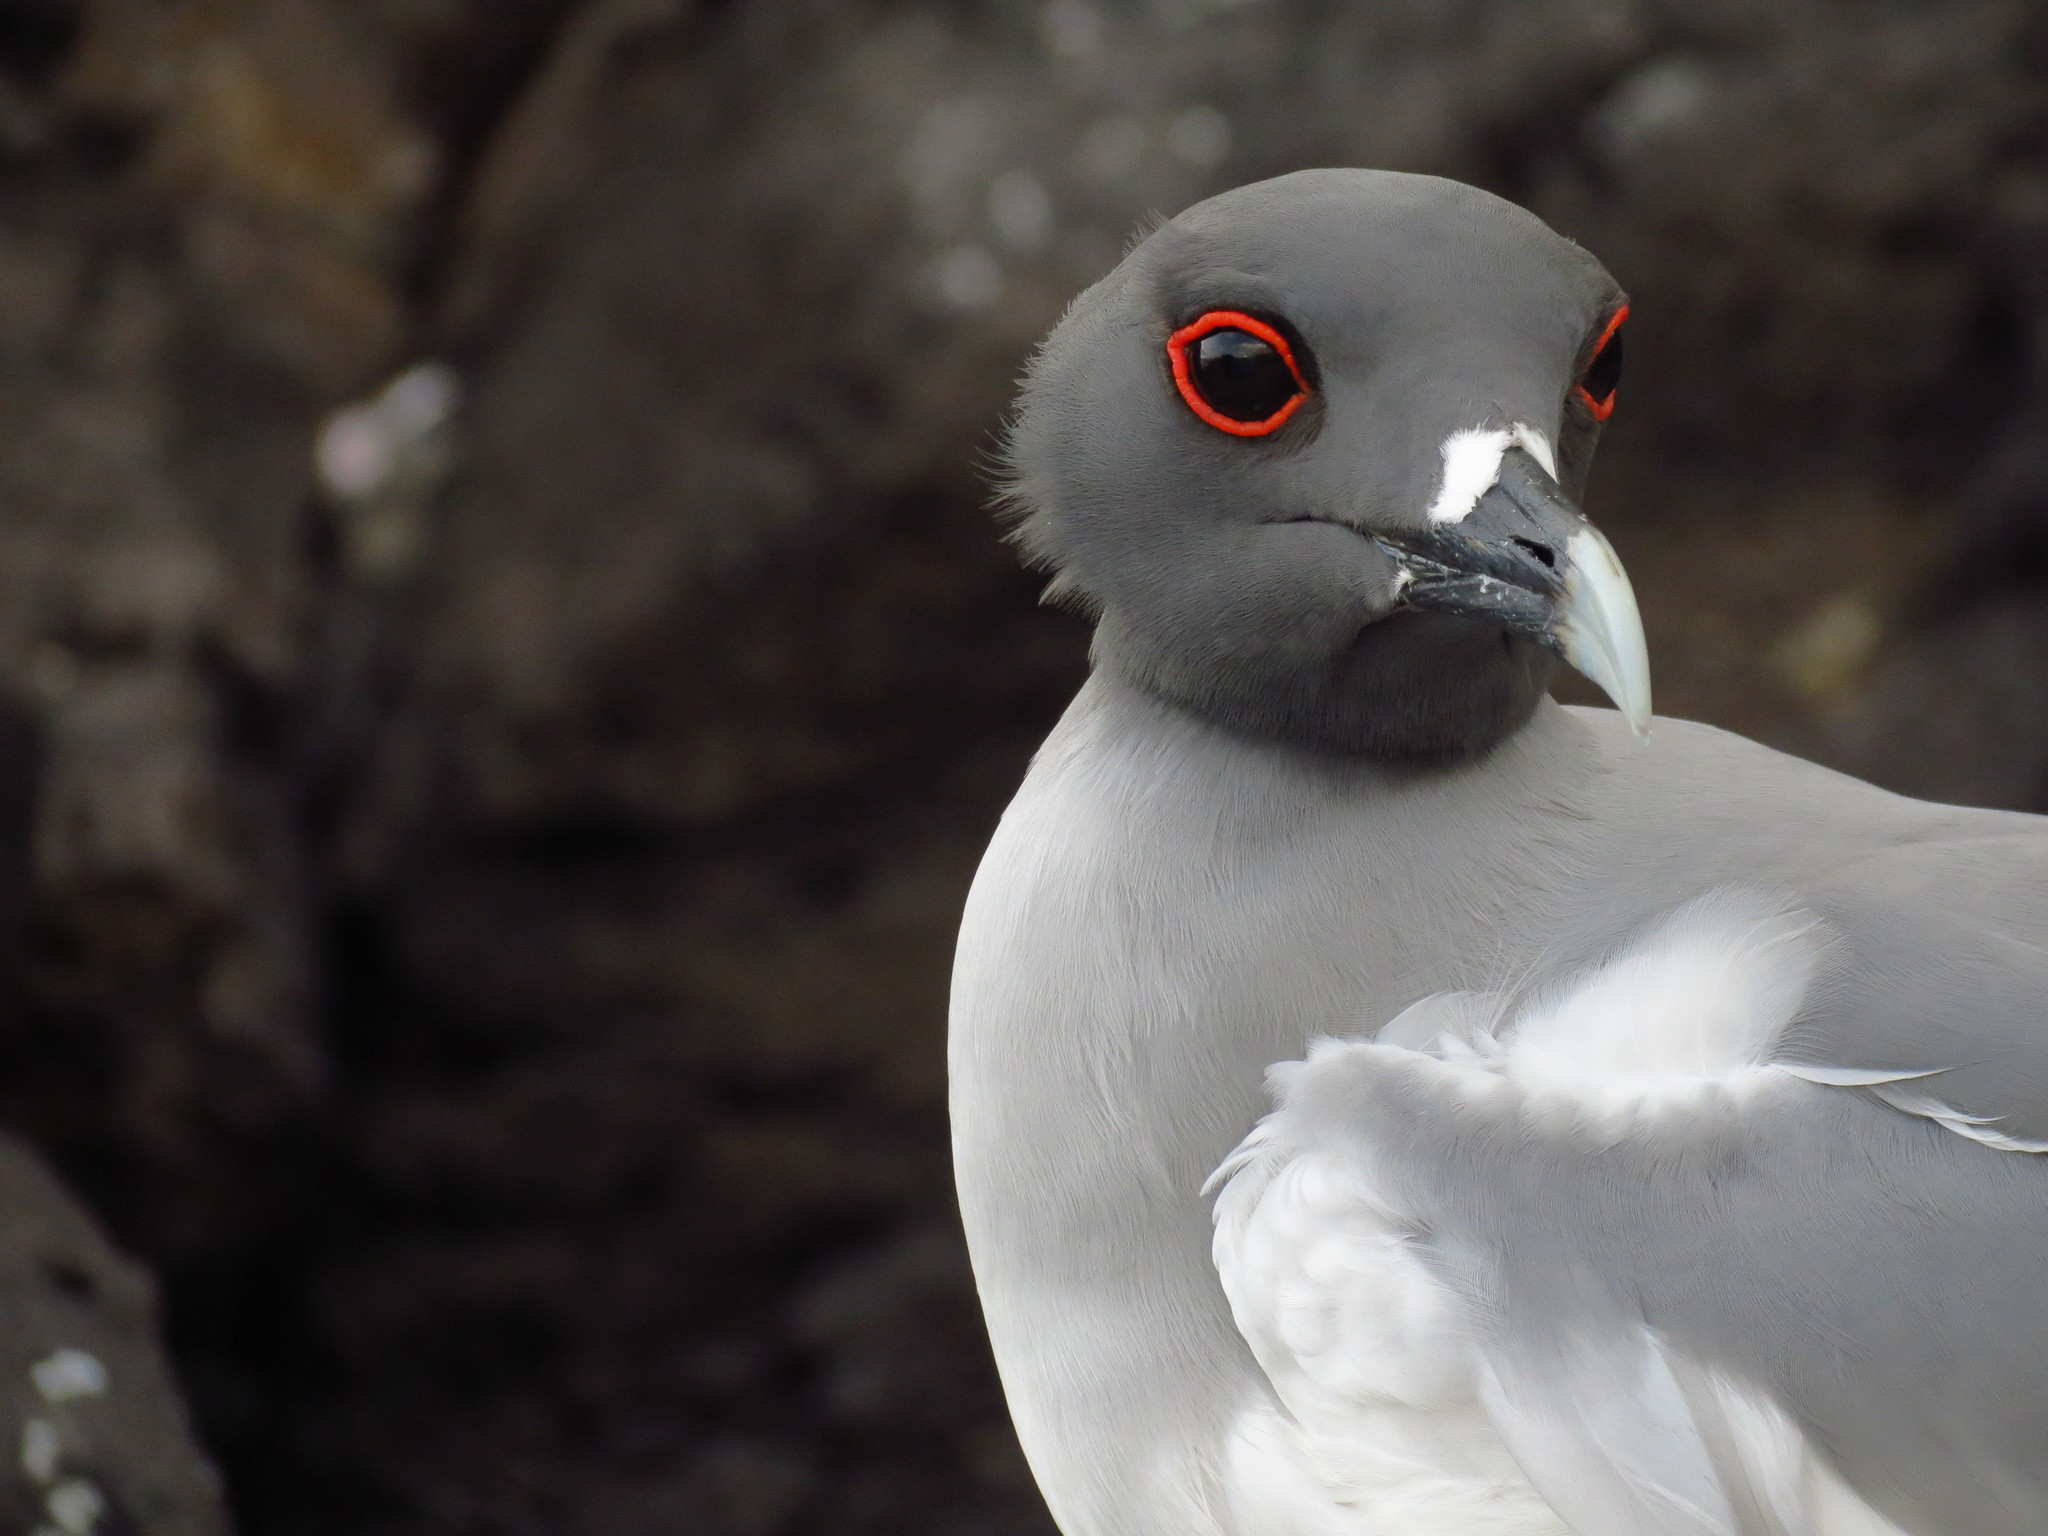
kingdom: Animalia
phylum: Chordata
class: Aves
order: Charadriiformes
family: Laridae
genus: Creagrus
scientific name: Creagrus furcatus
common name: Swallow-tailed gull
